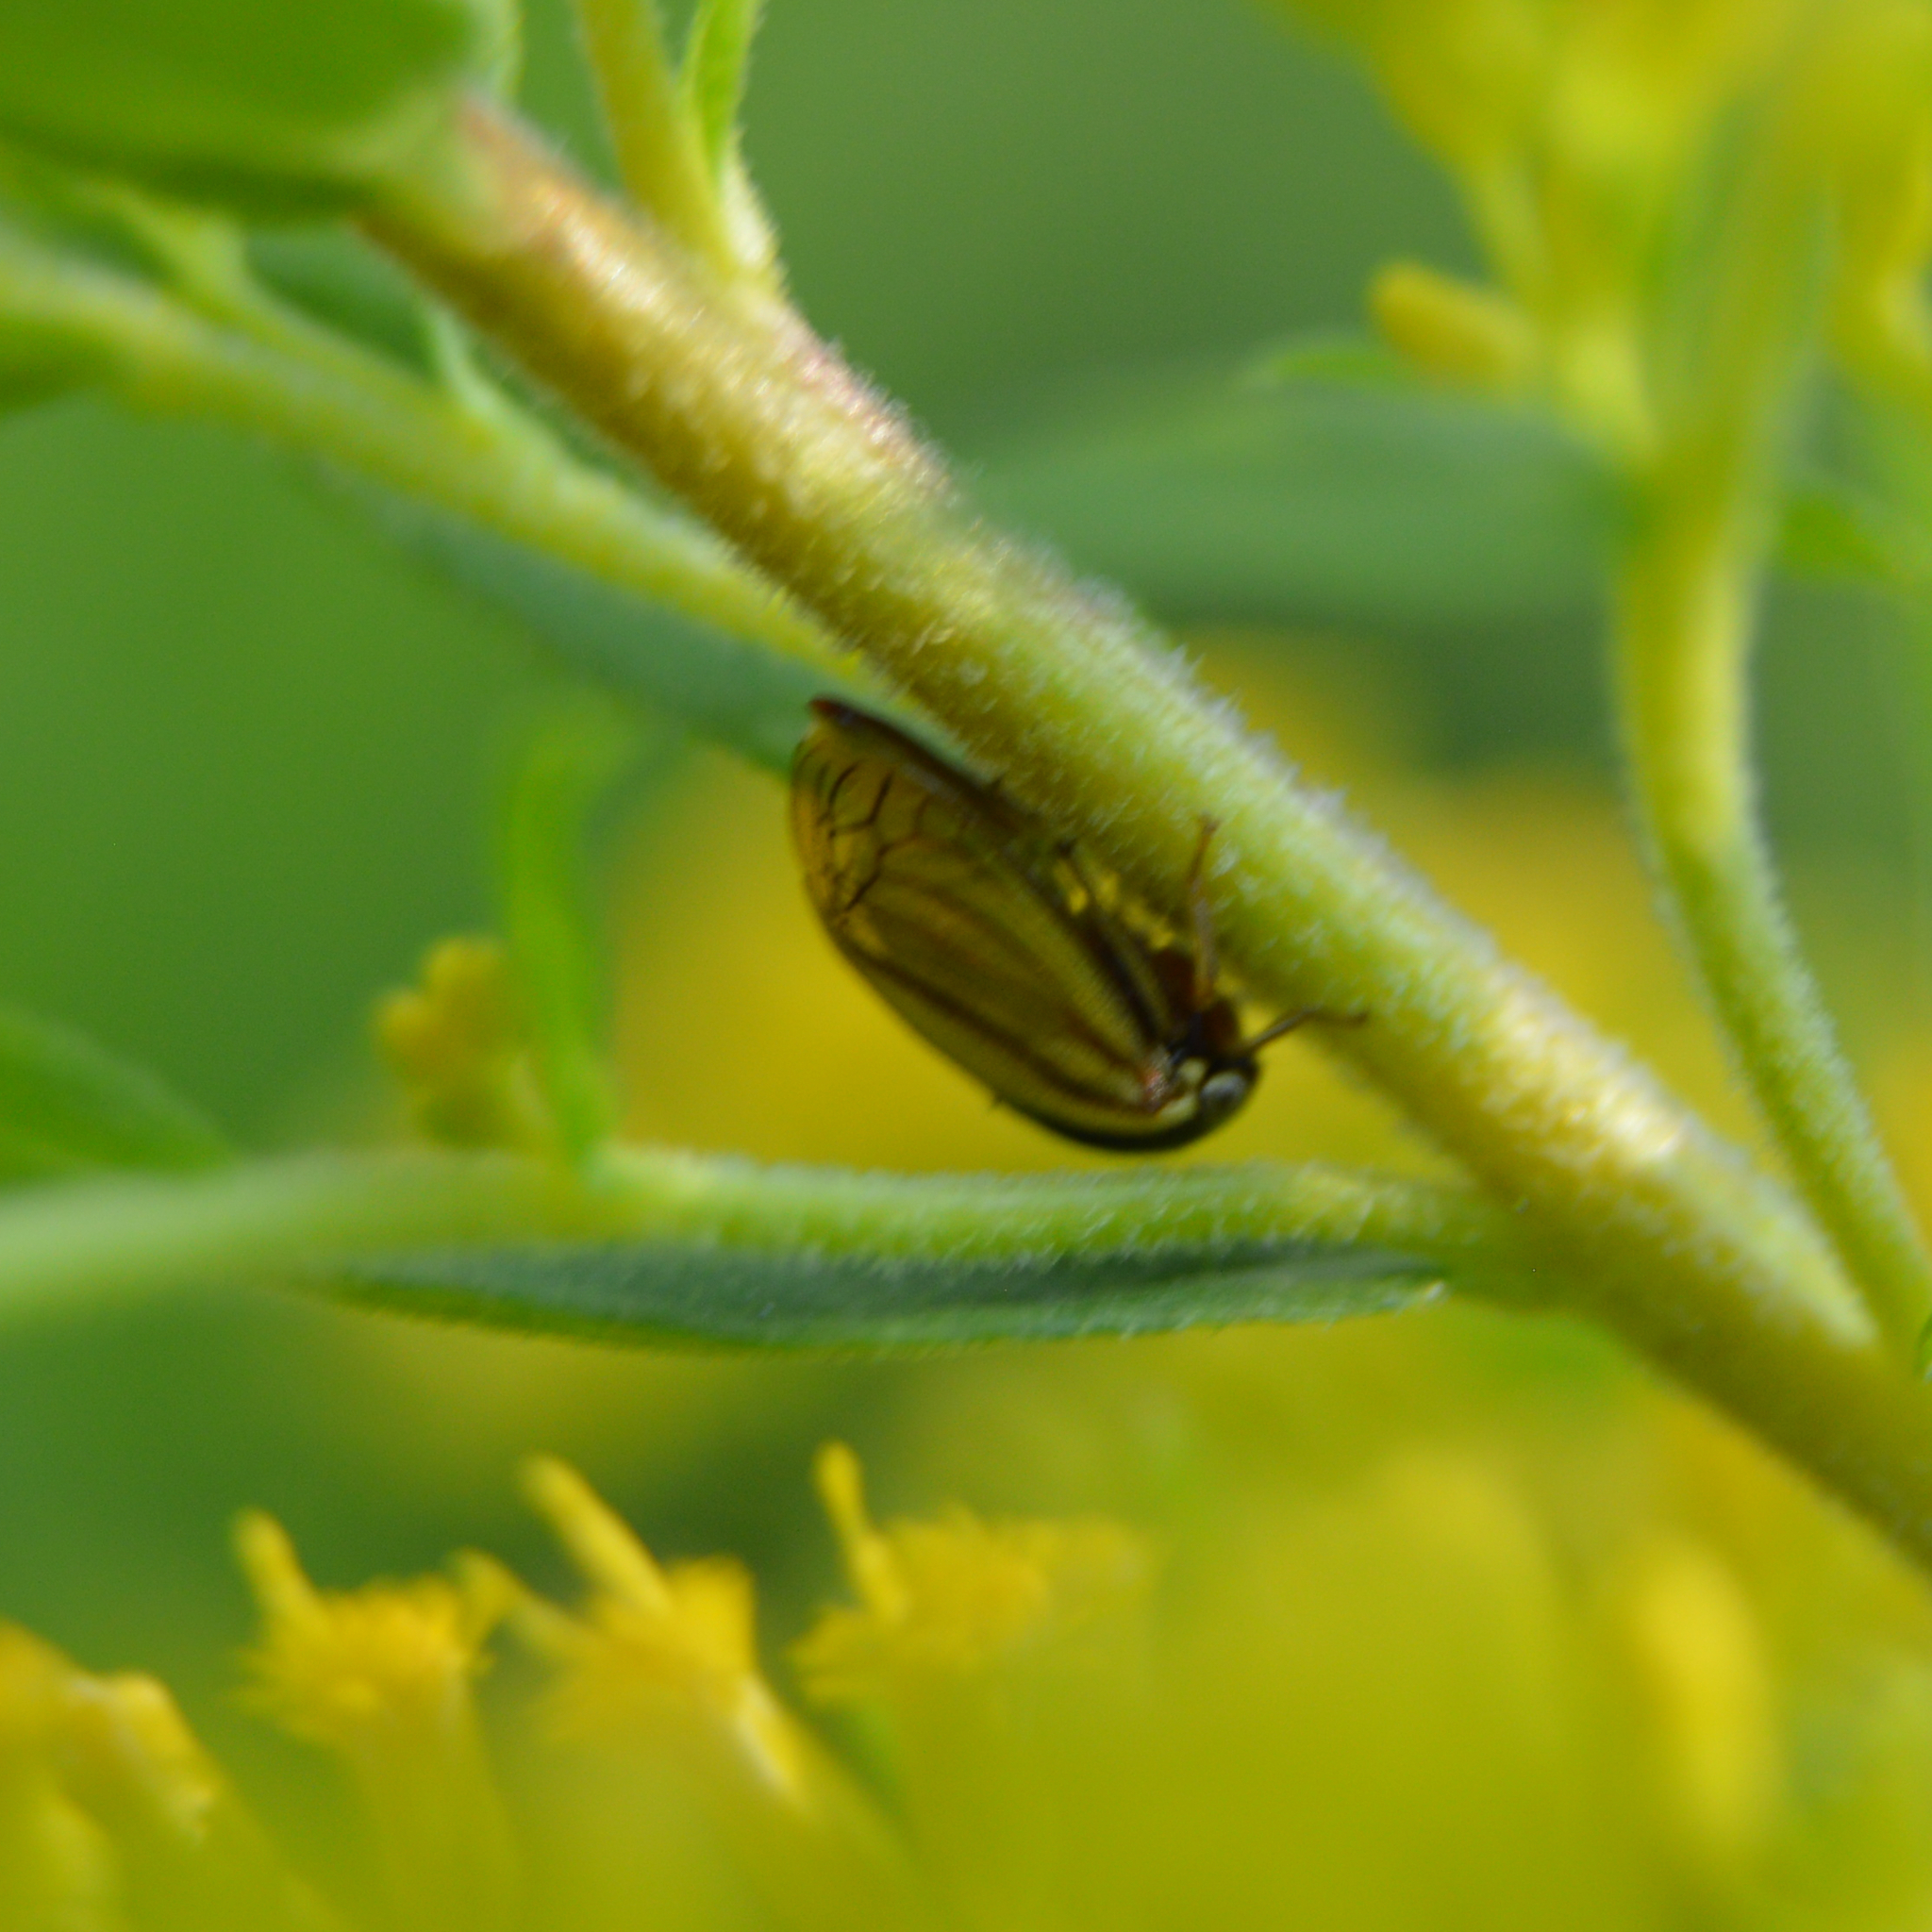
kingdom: Animalia
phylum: Arthropoda
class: Insecta
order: Hemiptera
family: Membracidae
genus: Acutalis
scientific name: Acutalis tartarea
